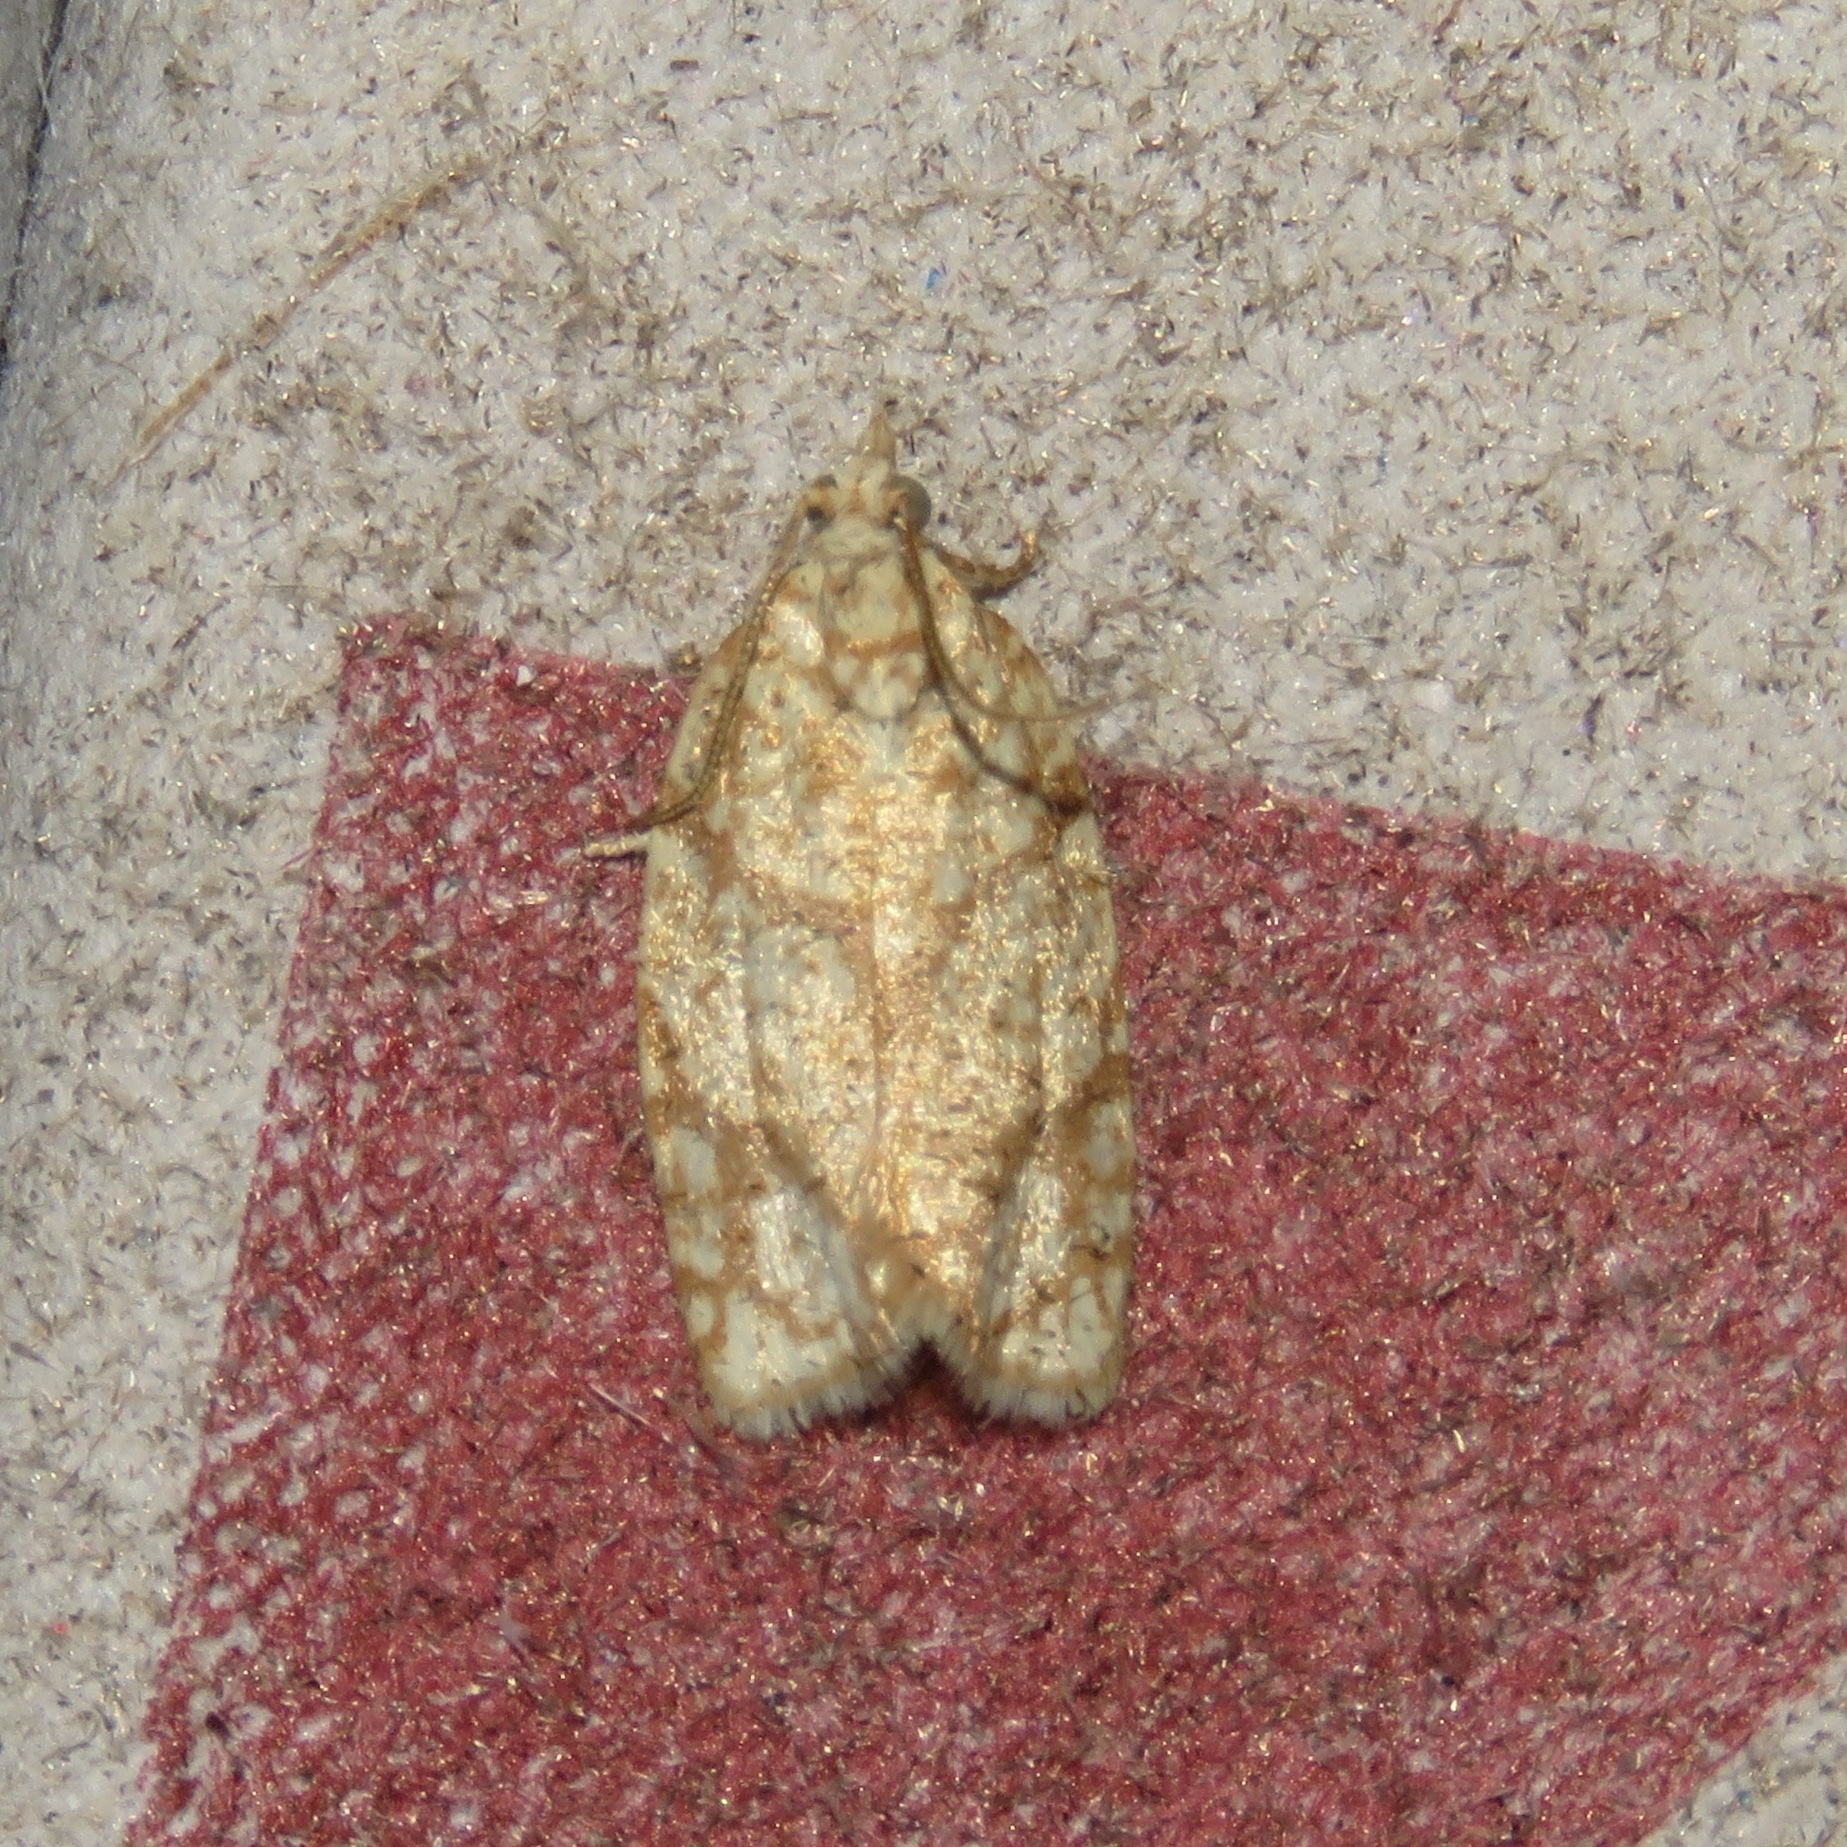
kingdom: Animalia
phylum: Arthropoda
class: Insecta
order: Lepidoptera
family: Tortricidae
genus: Argyrotaenia
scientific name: Argyrotaenia quercifoliana
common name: Yellow-winged oak leafroller moth
